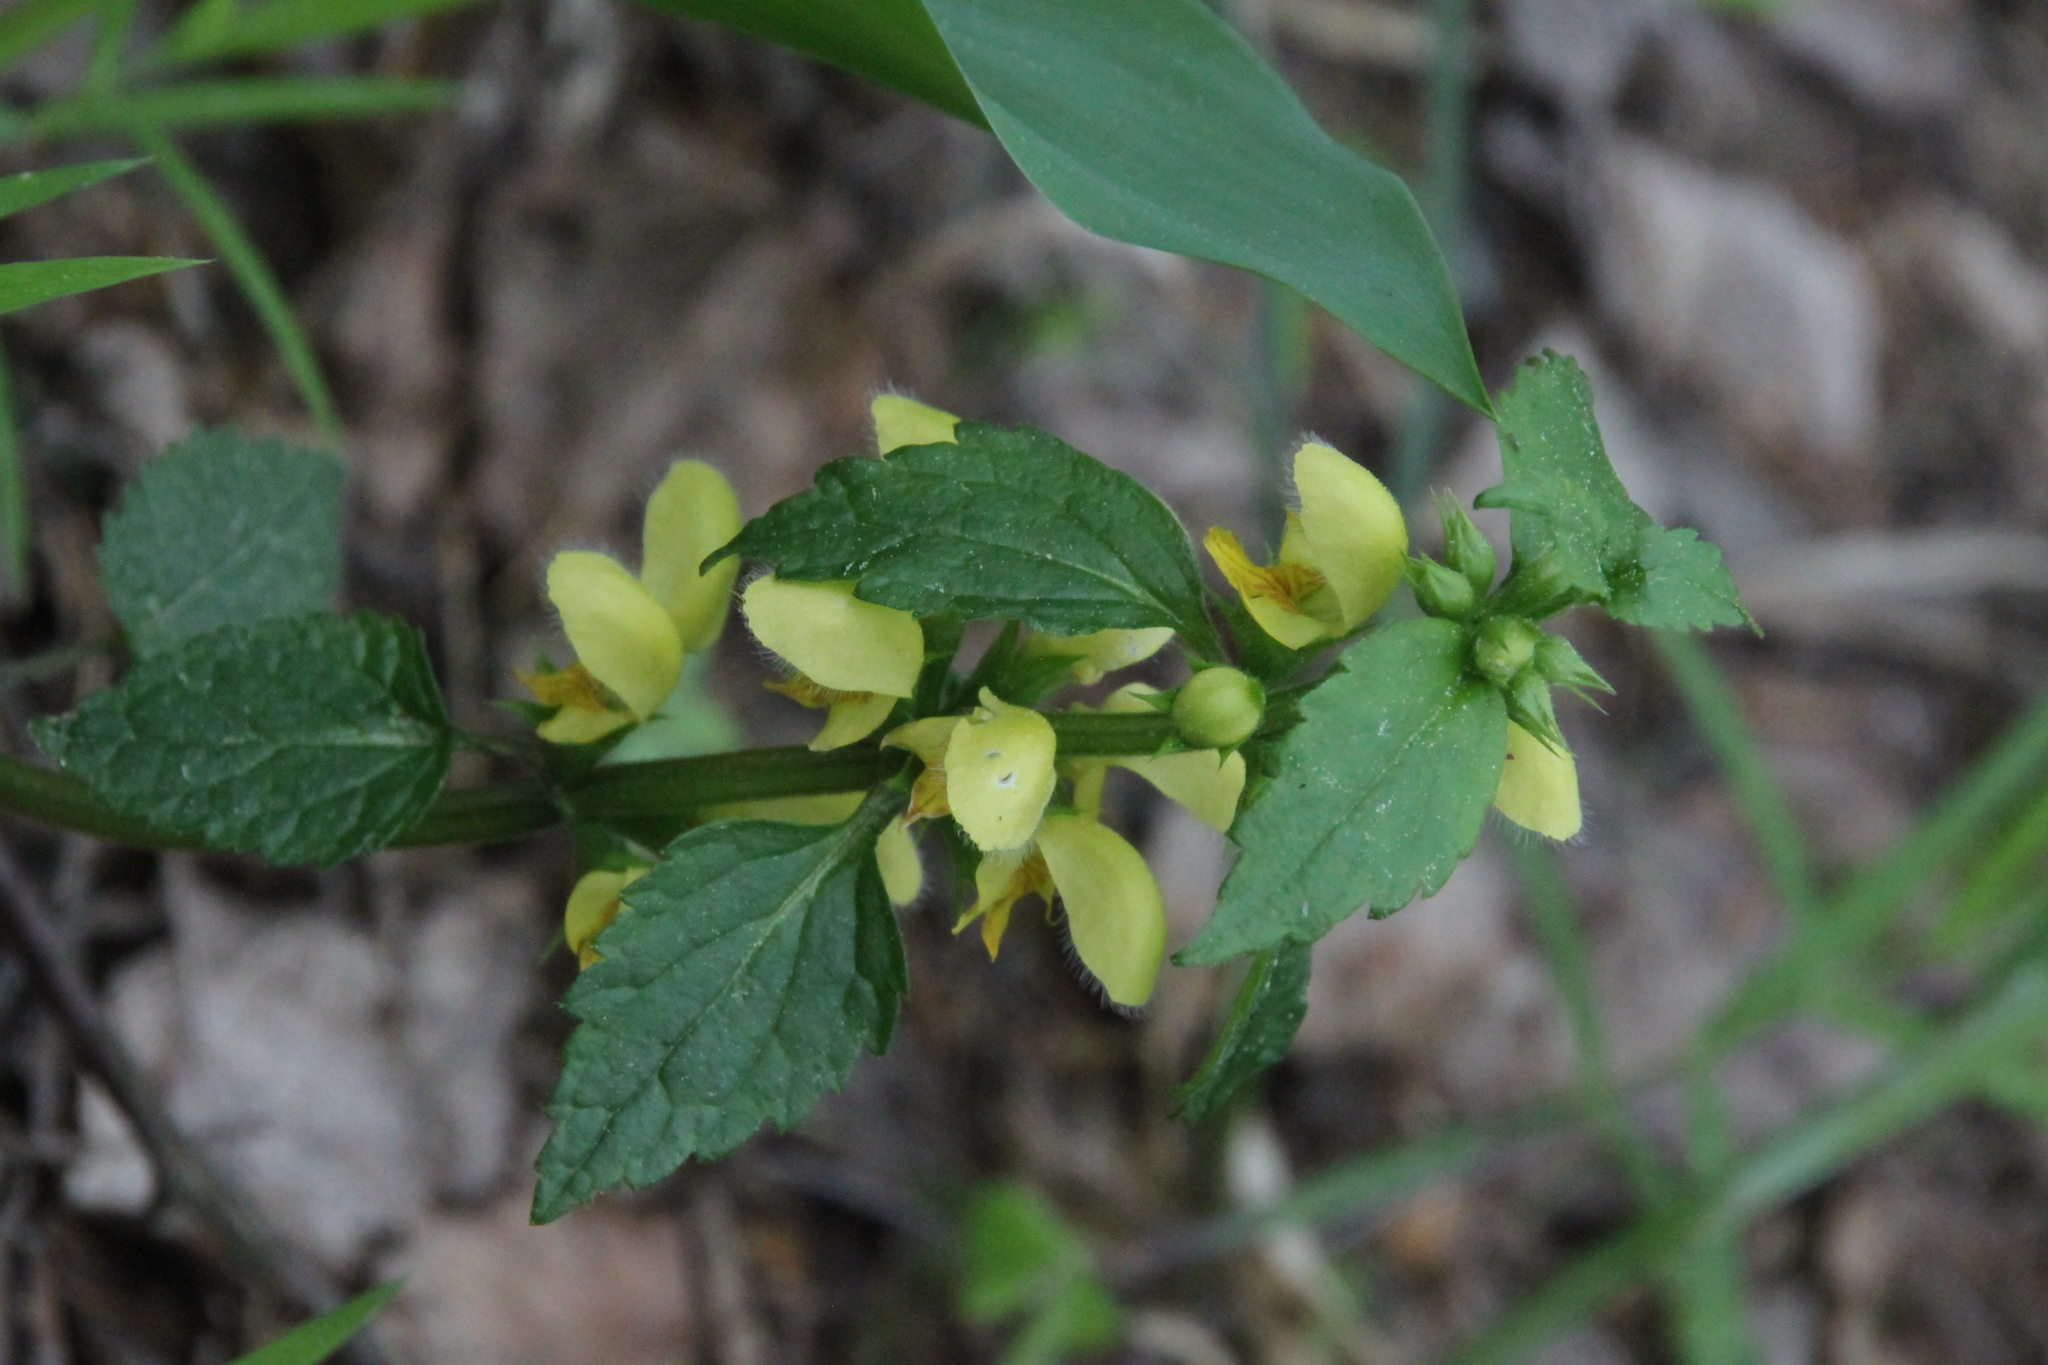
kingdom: Plantae
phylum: Tracheophyta
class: Magnoliopsida
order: Lamiales
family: Lamiaceae
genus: Lamium
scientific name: Lamium galeobdolon
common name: Yellow archangel
